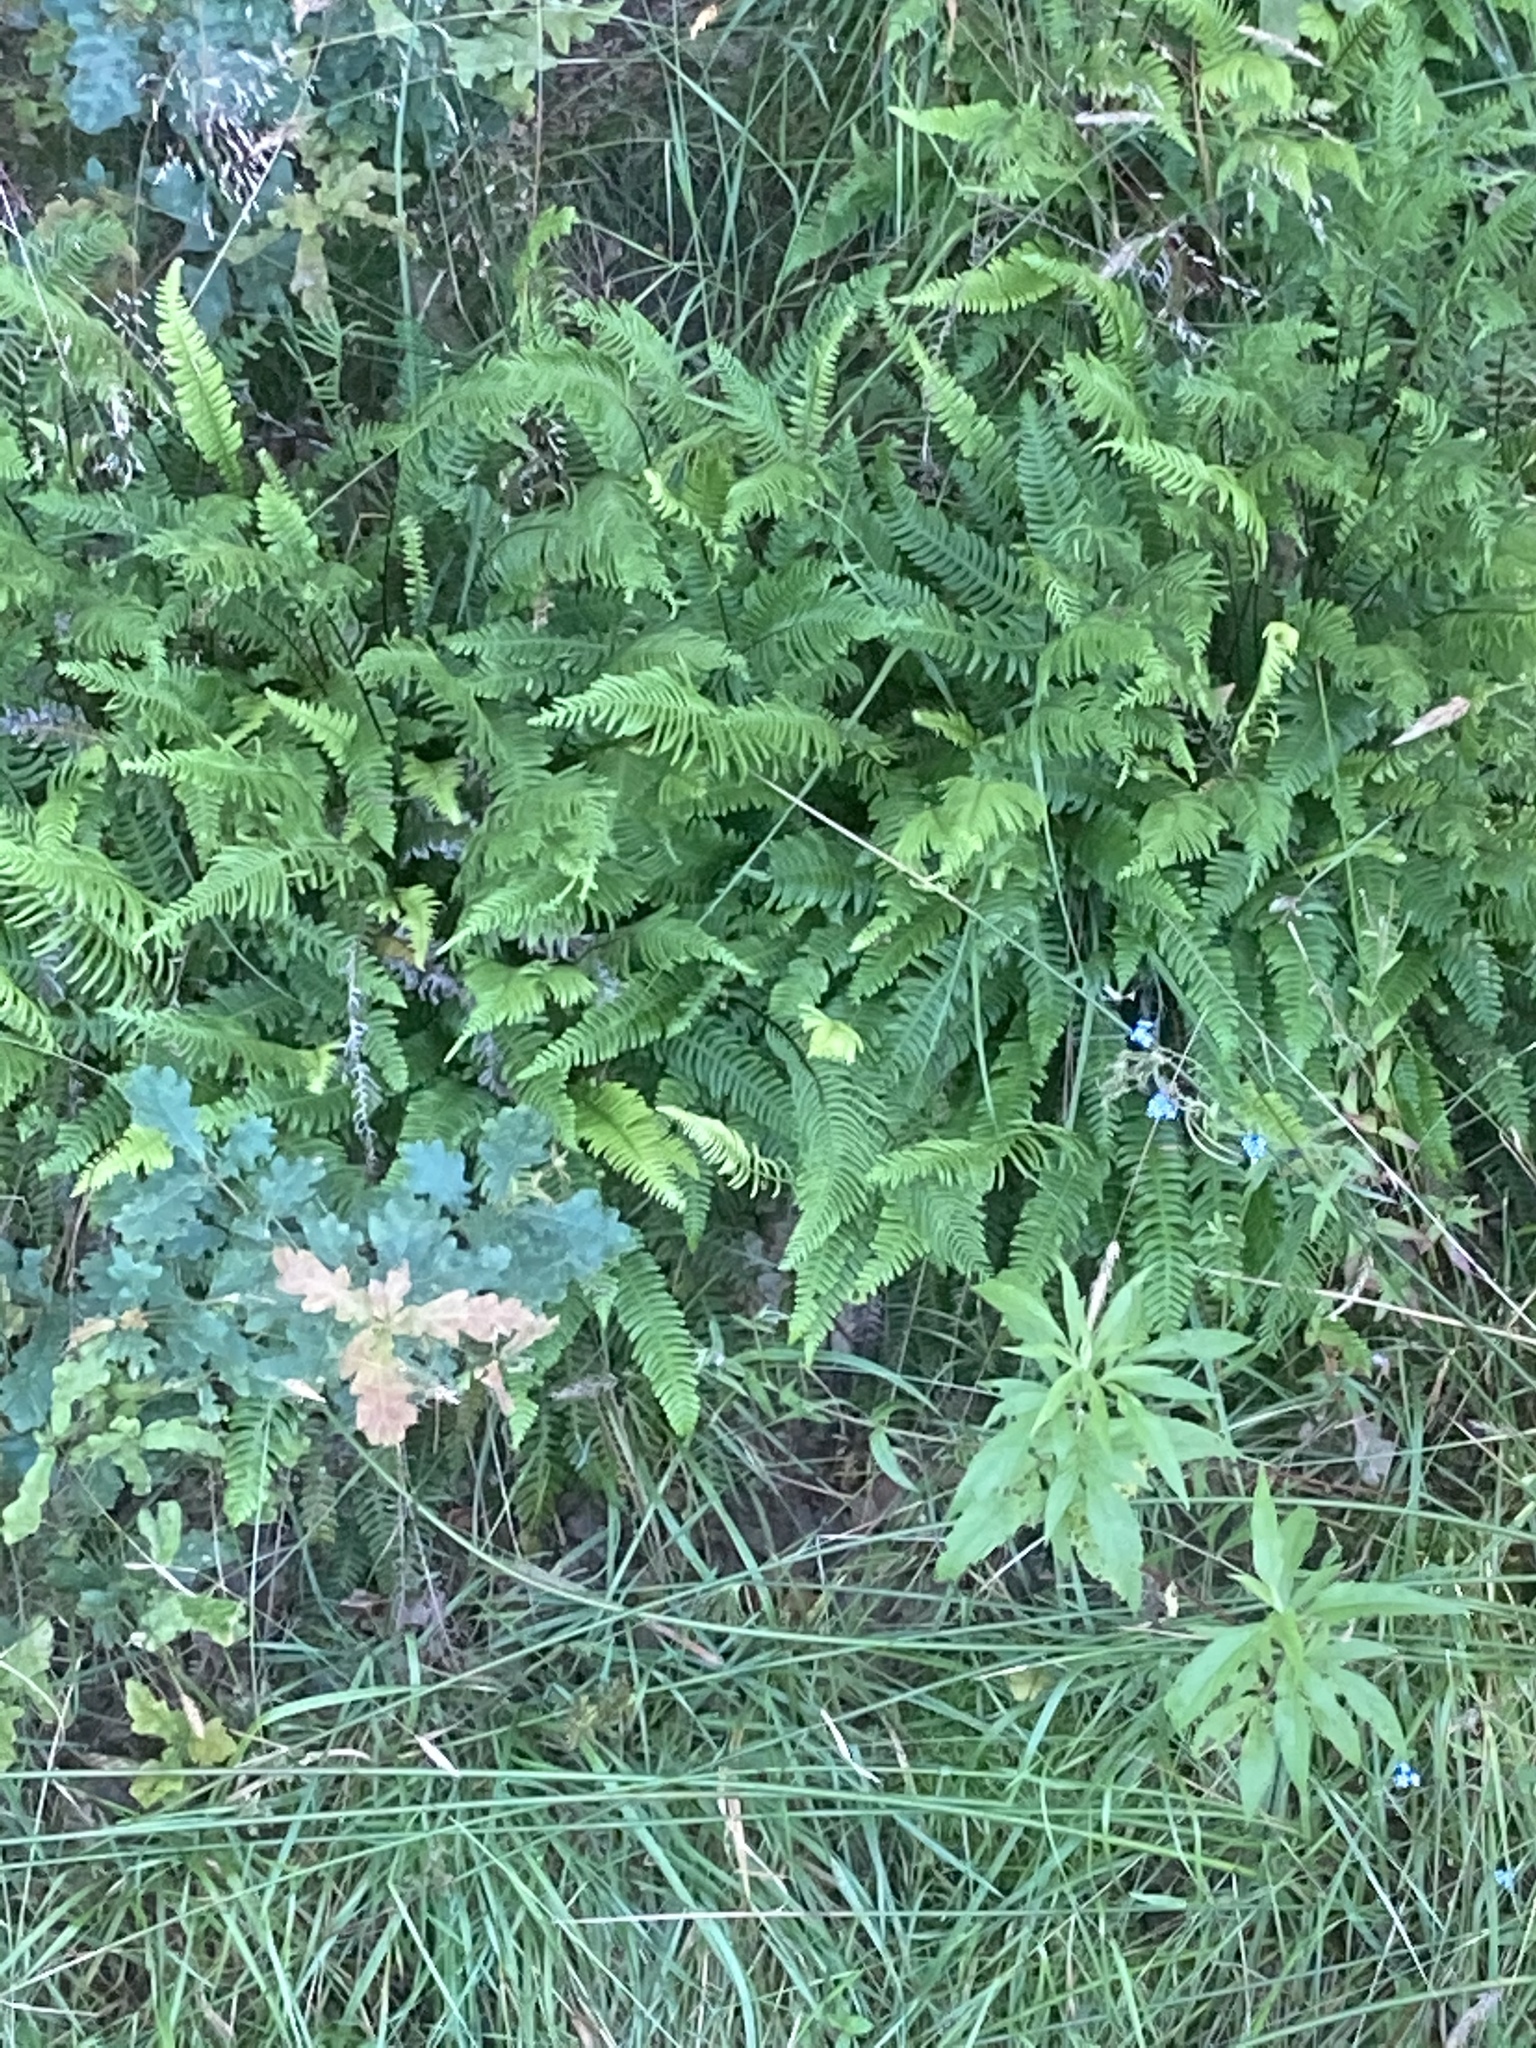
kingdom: Plantae
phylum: Tracheophyta
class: Polypodiopsida
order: Polypodiales
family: Blechnaceae
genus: Struthiopteris
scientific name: Struthiopteris spicant
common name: Deer fern
